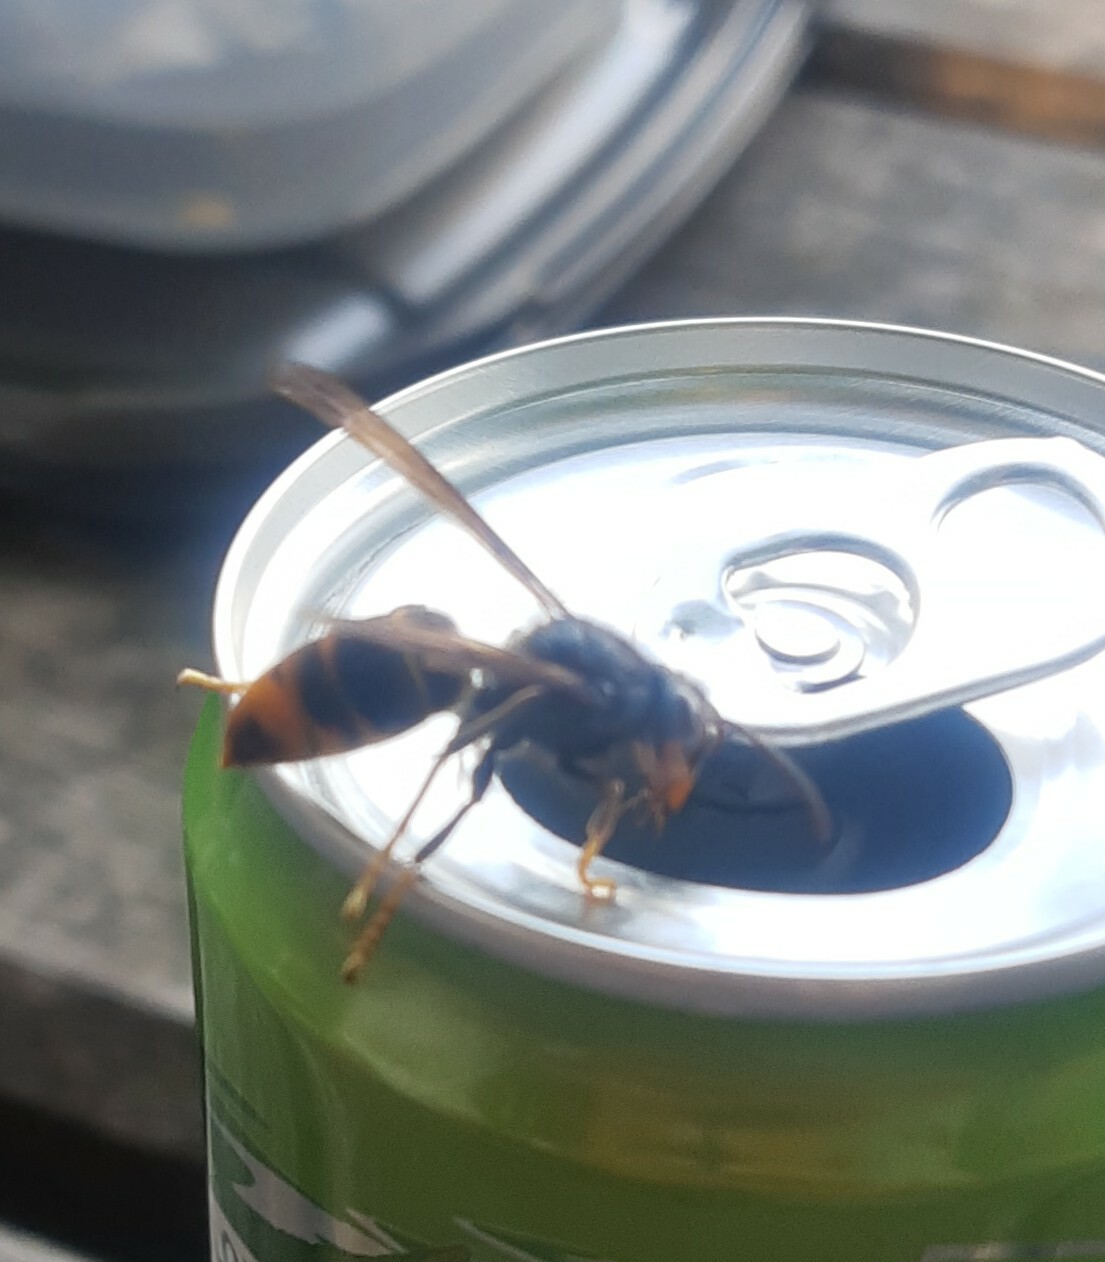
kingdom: Animalia
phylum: Arthropoda
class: Insecta
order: Hymenoptera
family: Vespidae
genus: Vespa
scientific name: Vespa velutina
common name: Asian hornet
